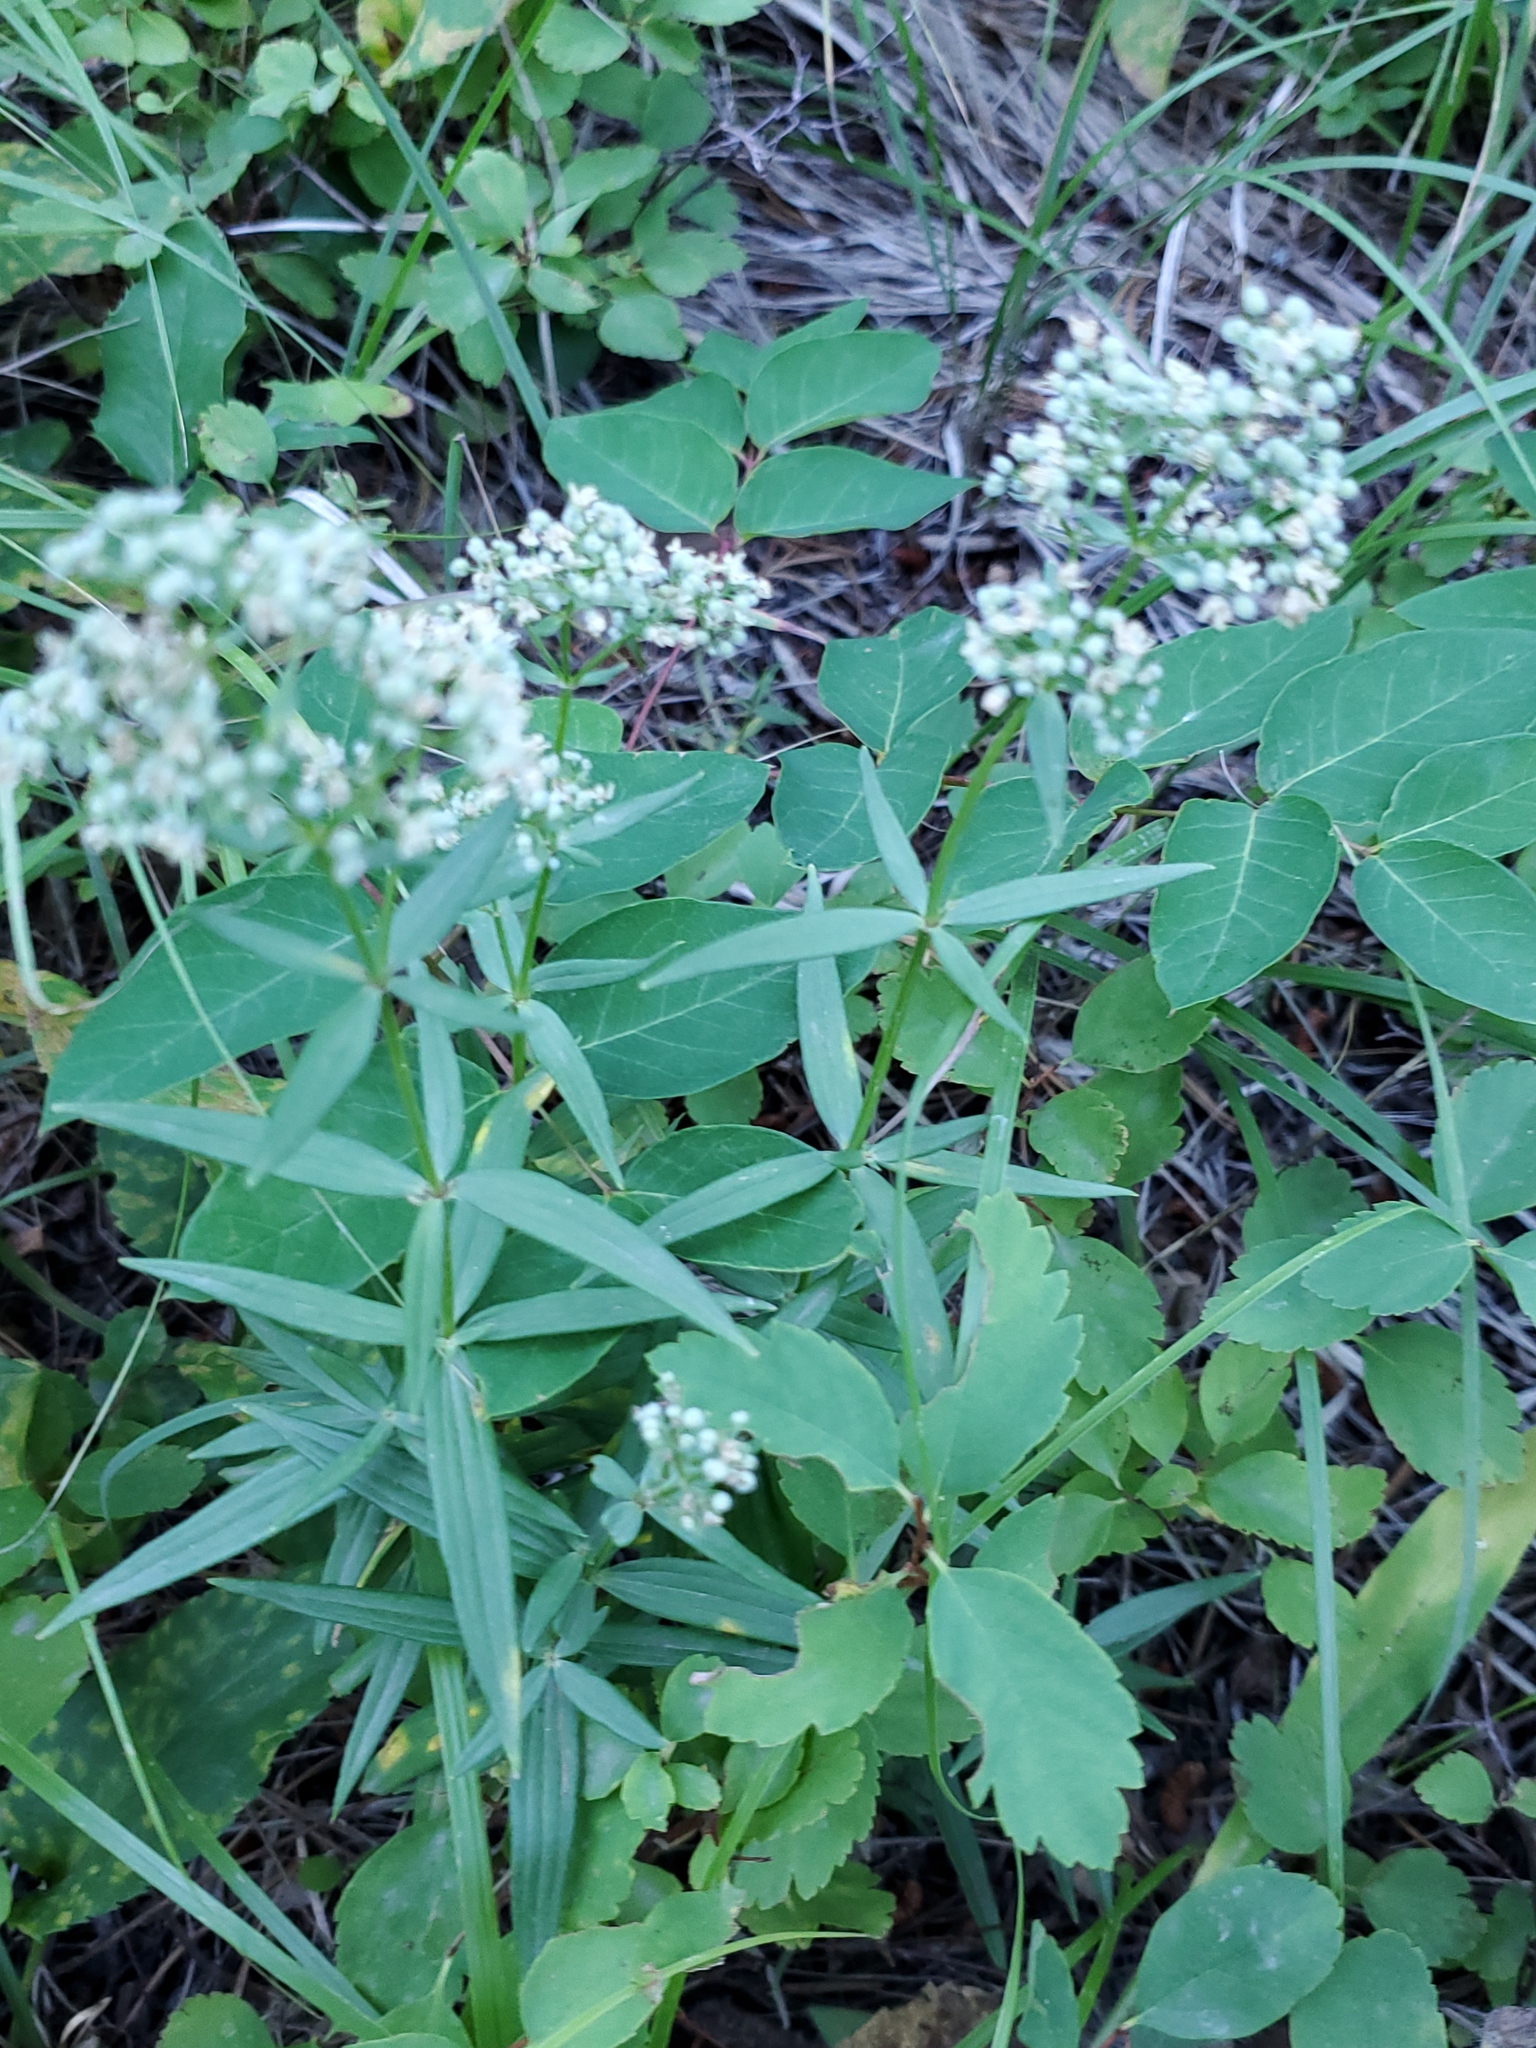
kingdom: Plantae
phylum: Tracheophyta
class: Magnoliopsida
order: Gentianales
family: Rubiaceae
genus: Galium
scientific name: Galium boreale
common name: Northern bedstraw
